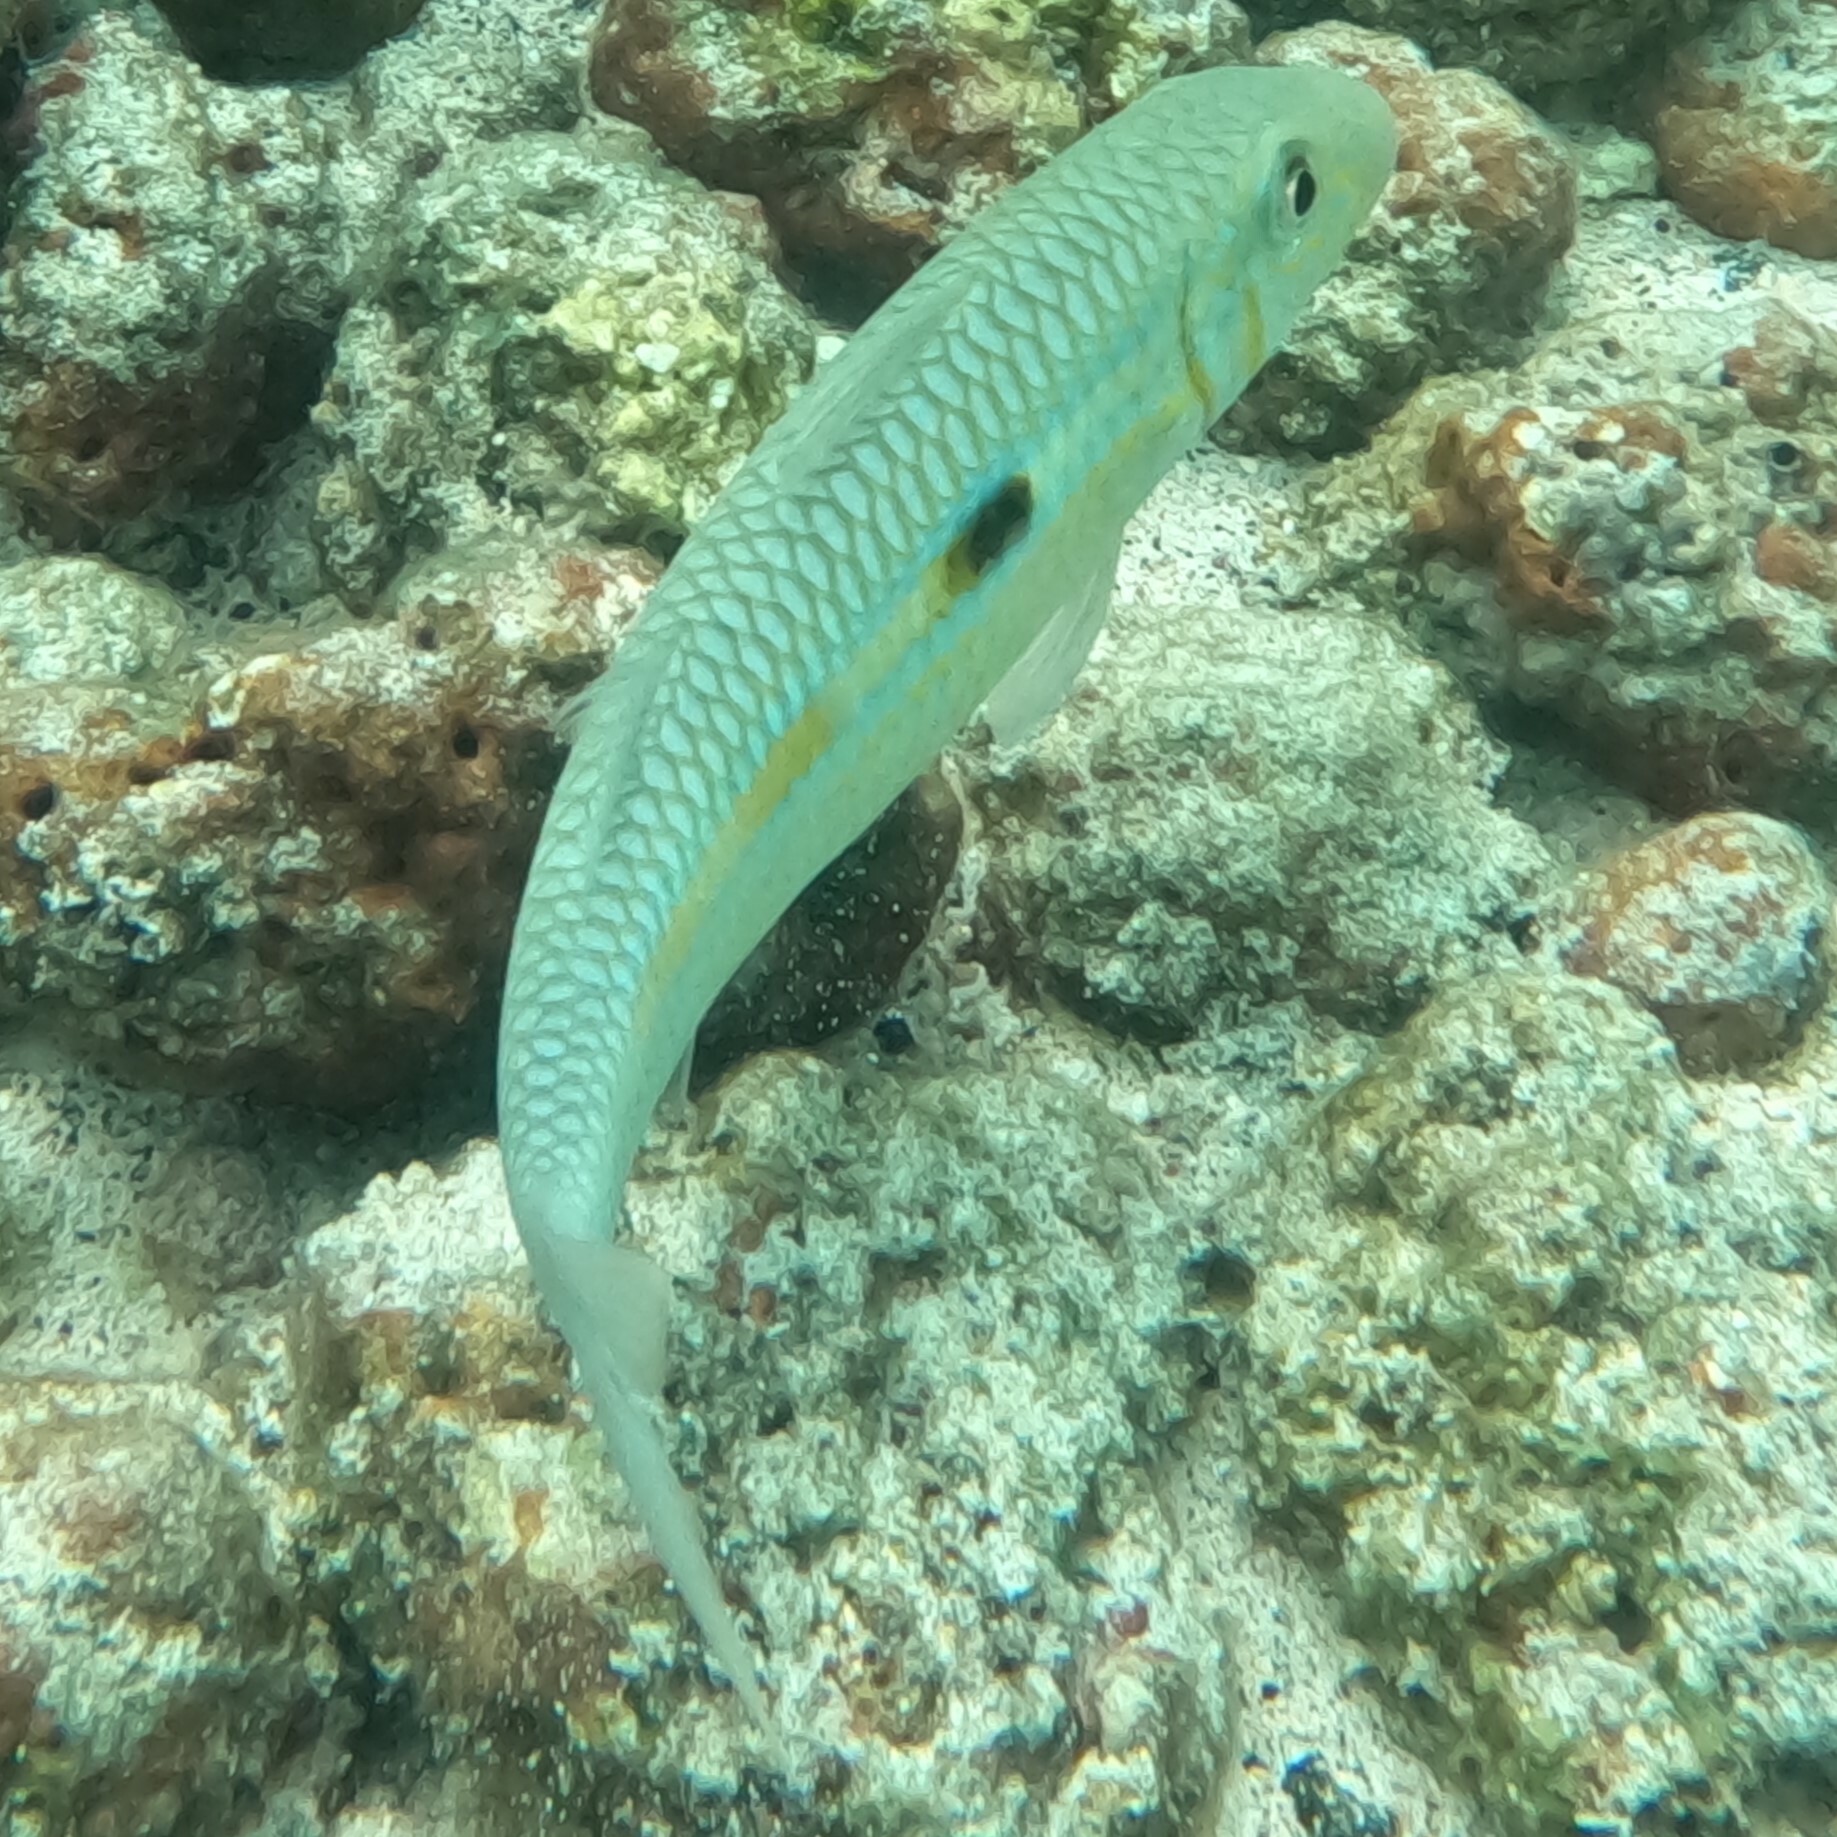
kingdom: Animalia
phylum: Chordata
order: Perciformes
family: Mullidae
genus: Mulloidichthys
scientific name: Mulloidichthys flavolineatus
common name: Yellowstripe goatfish
